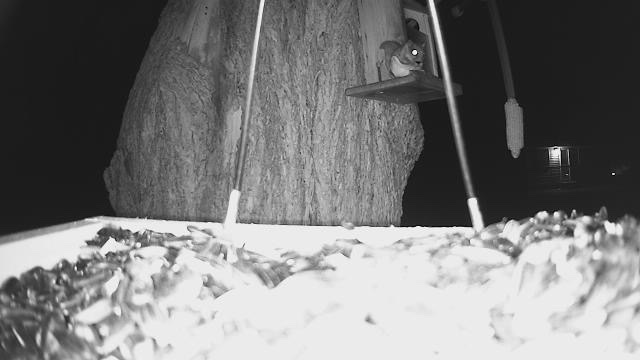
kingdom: Animalia
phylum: Chordata
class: Mammalia
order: Rodentia
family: Sciuridae
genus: Glaucomys
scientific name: Glaucomys volans
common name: Southern flying squirrel
